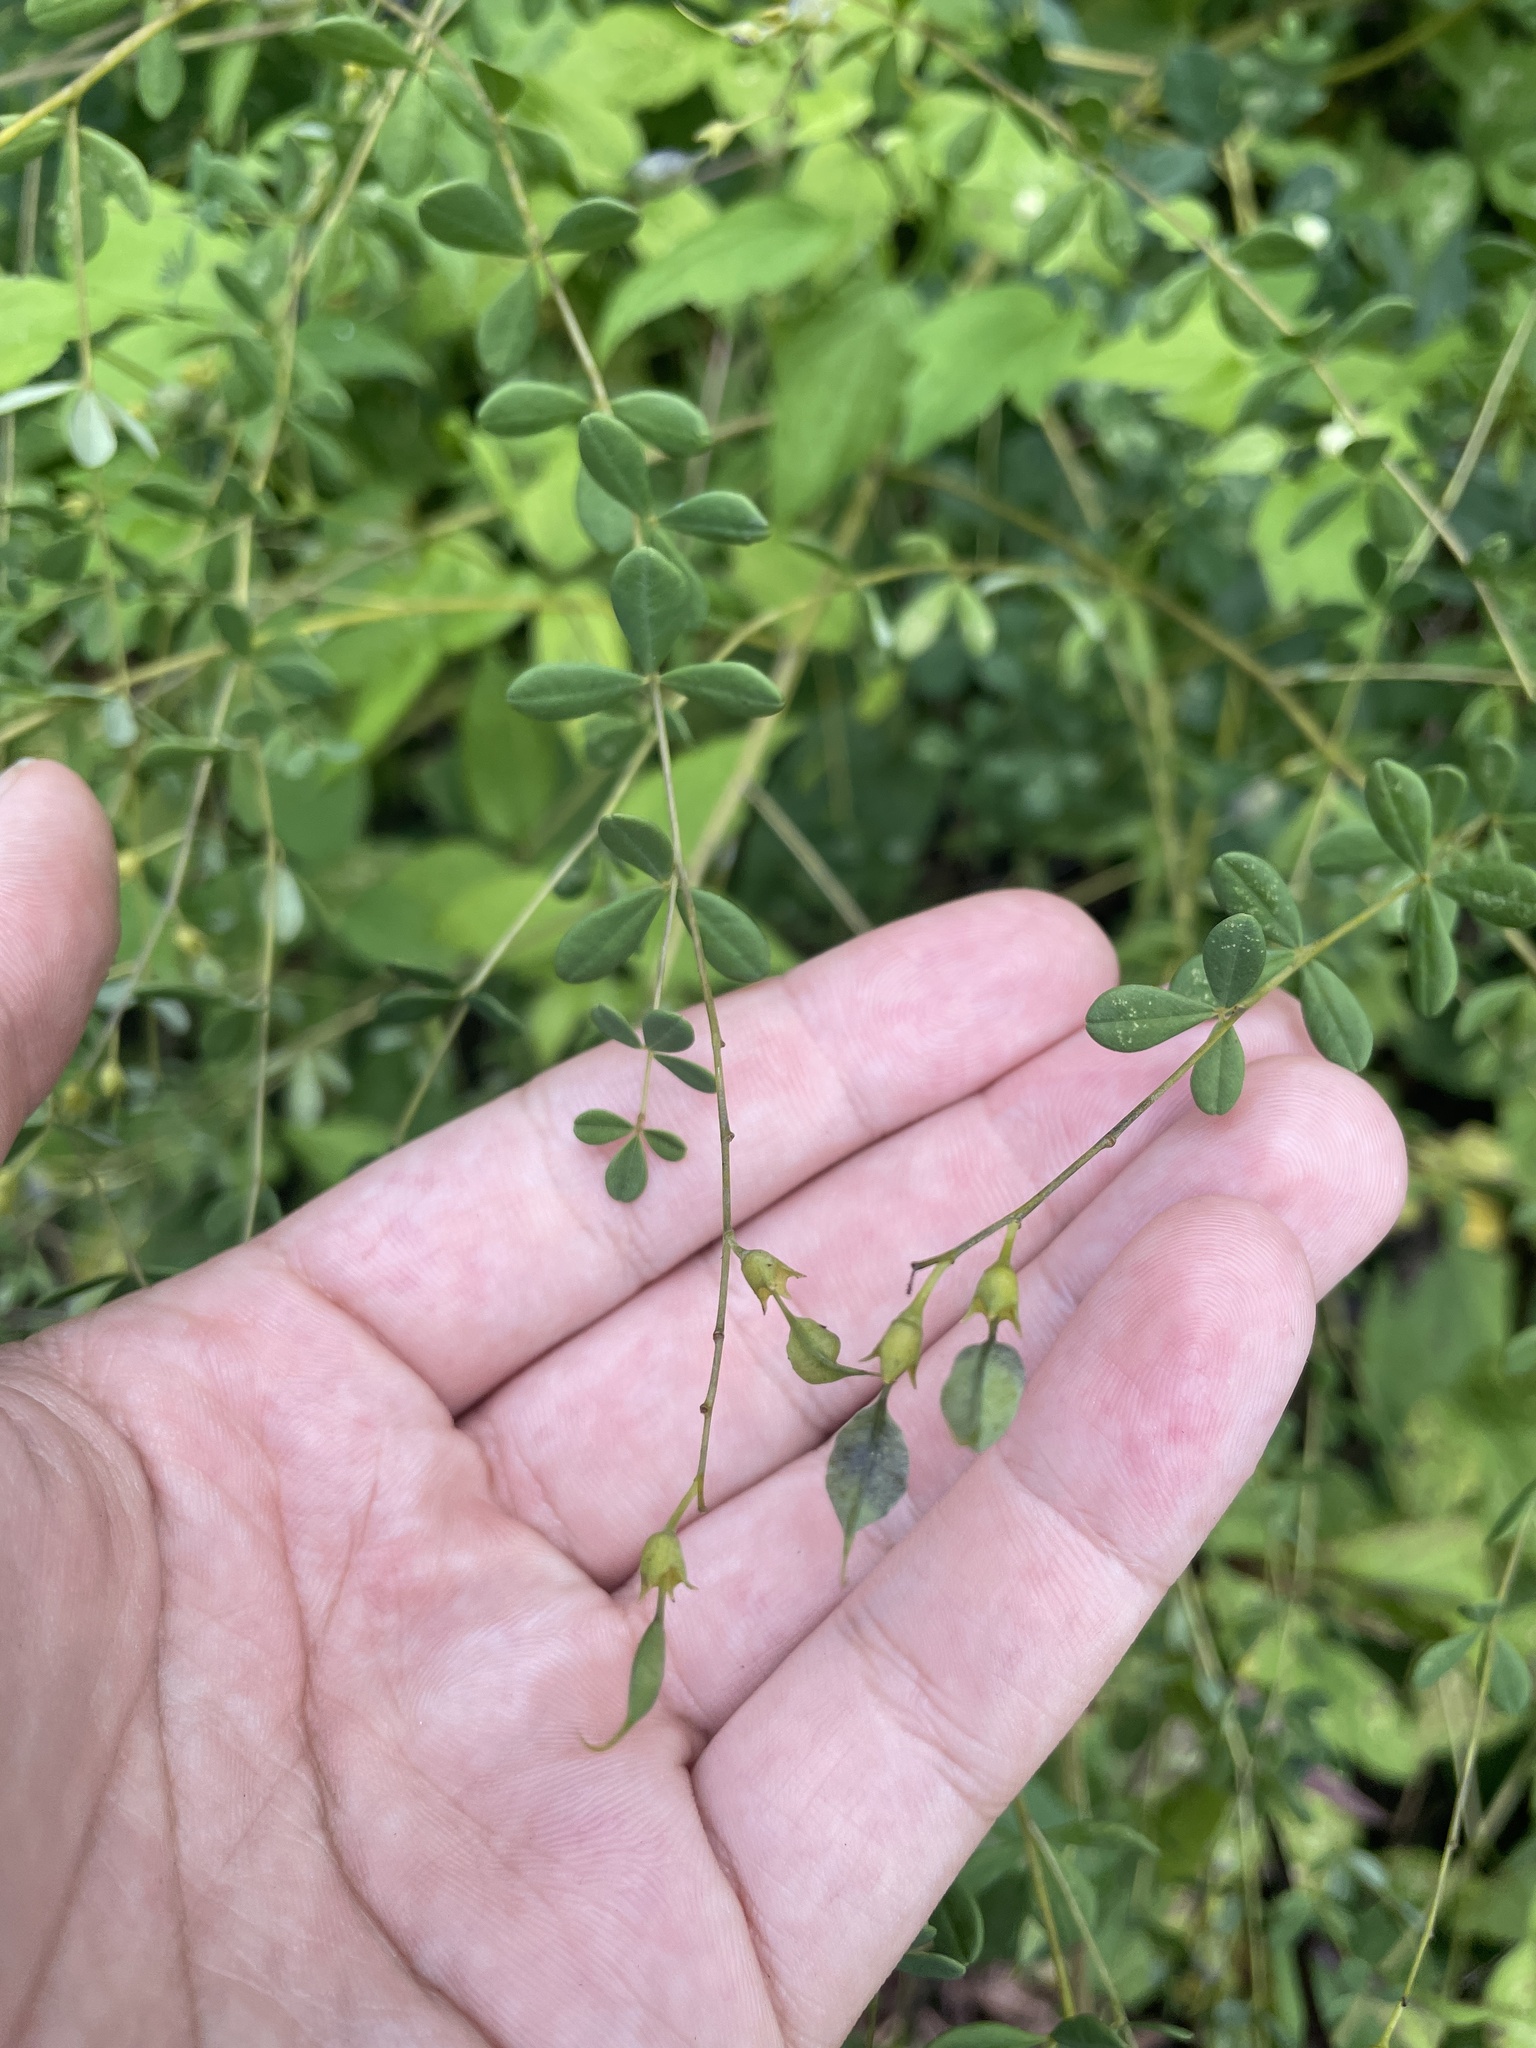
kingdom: Plantae
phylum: Tracheophyta
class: Magnoliopsida
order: Fabales
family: Fabaceae
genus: Baptisia
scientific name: Baptisia tinctoria
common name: Wild indigo
